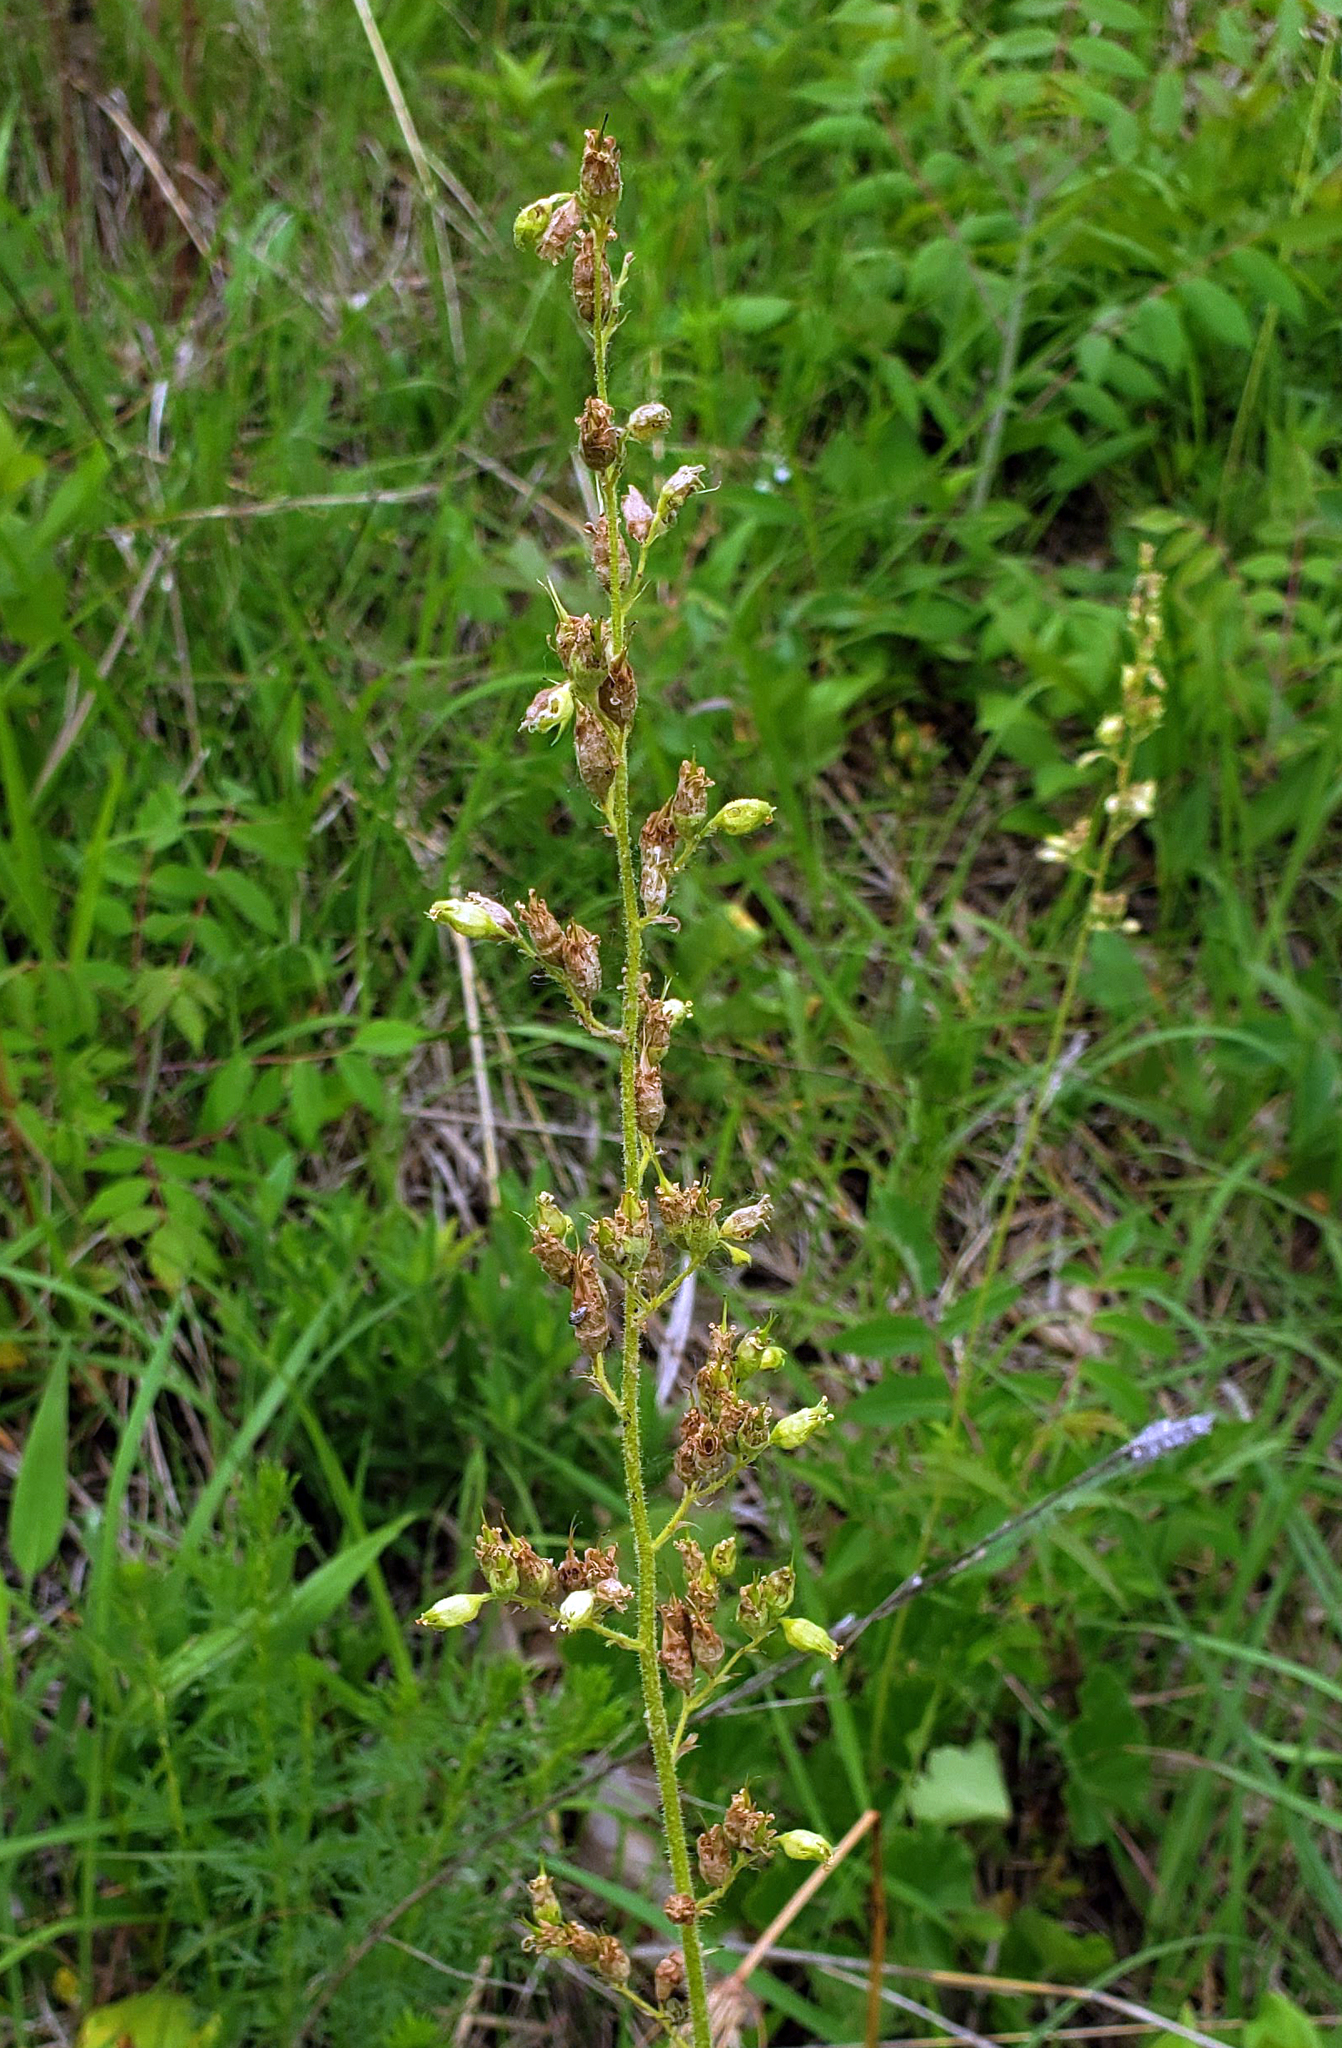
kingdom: Plantae
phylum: Tracheophyta
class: Magnoliopsida
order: Saxifragales
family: Saxifragaceae
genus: Heuchera
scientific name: Heuchera richardsonii
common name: Richardson's alumroot
